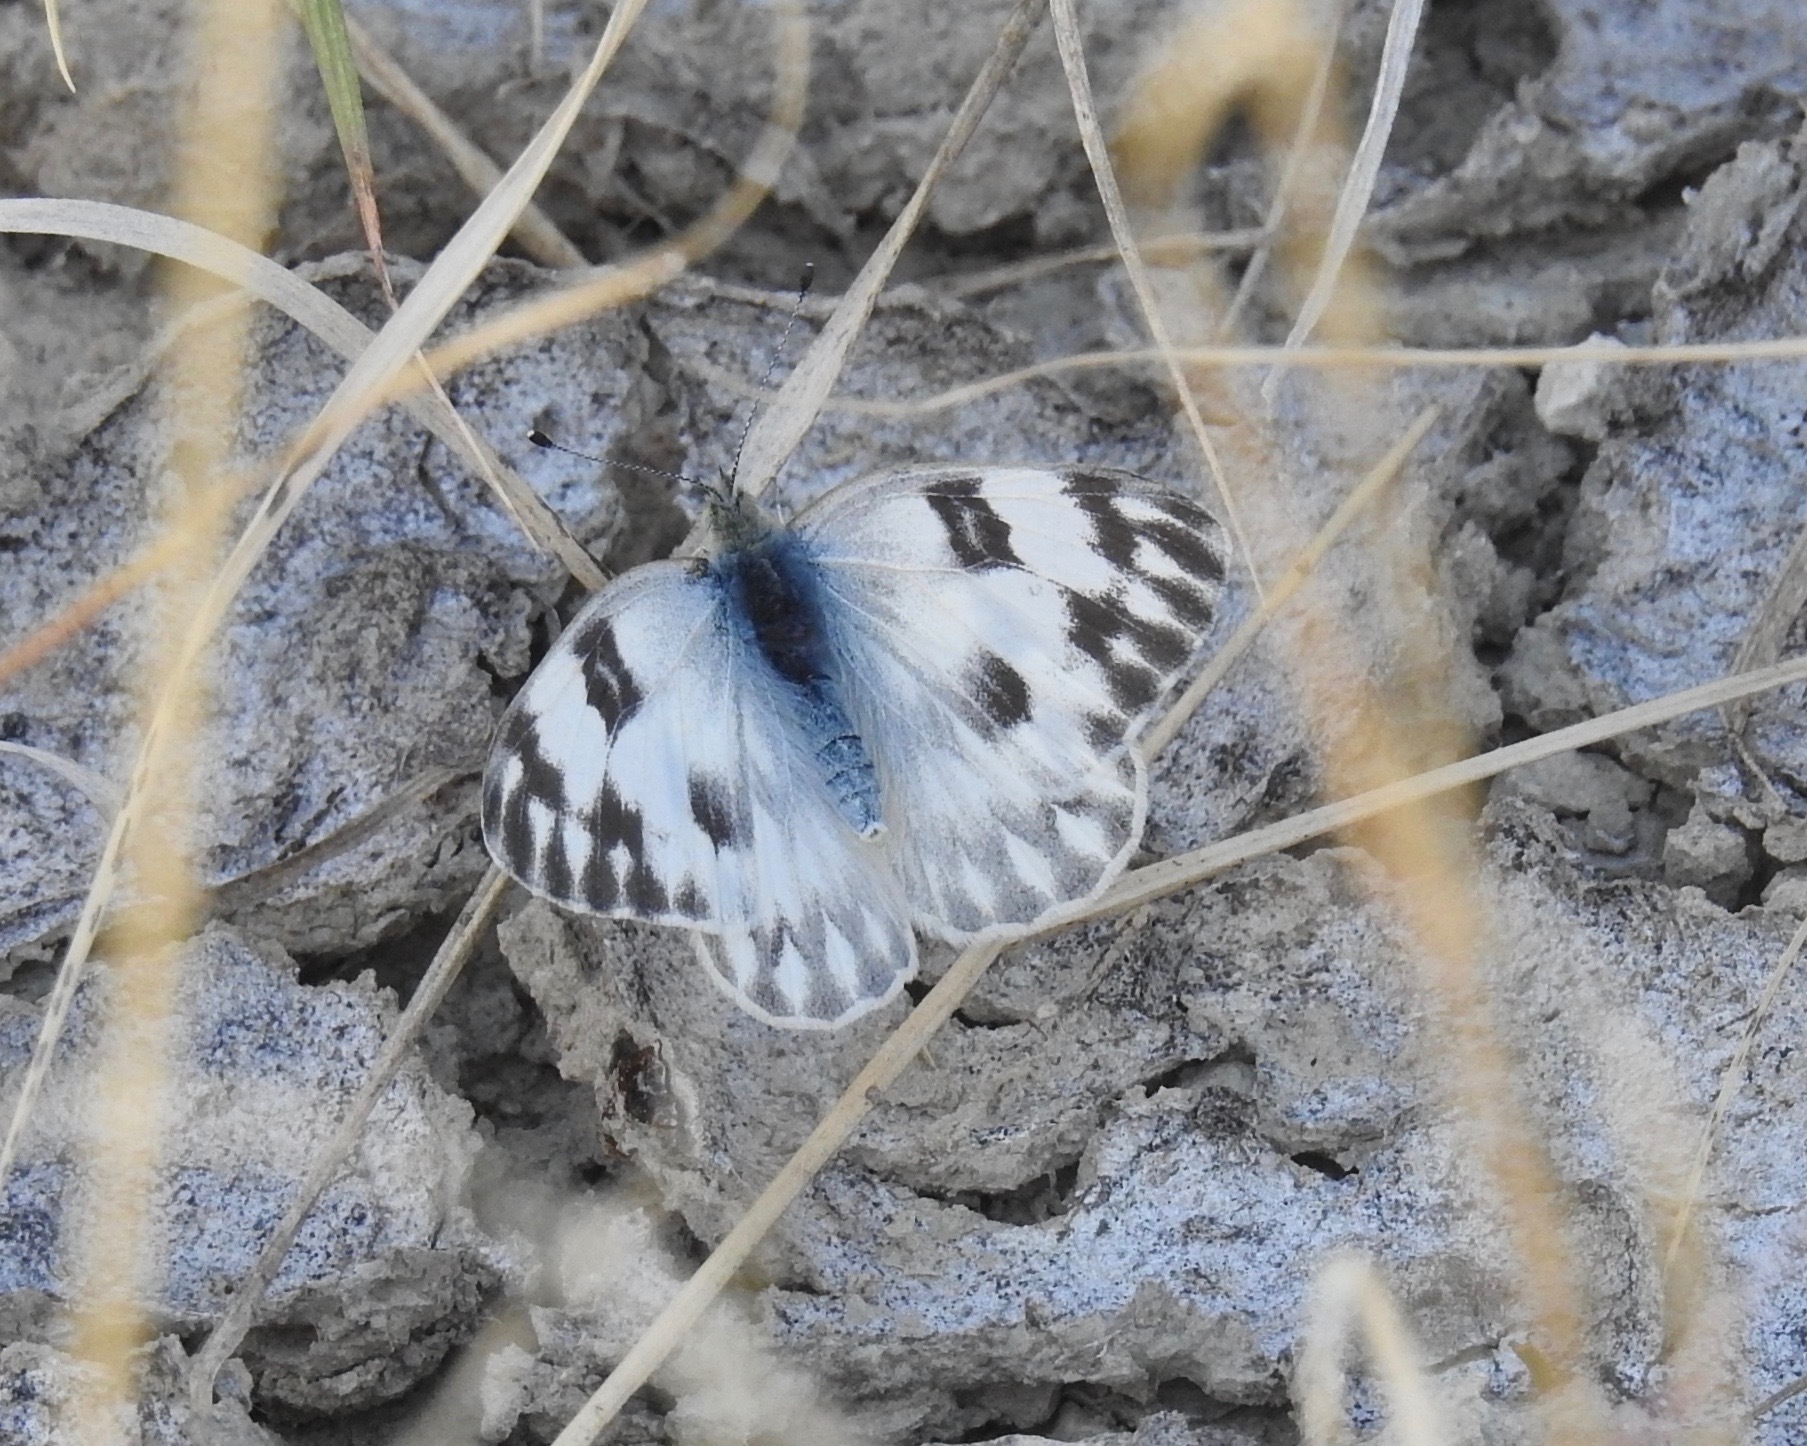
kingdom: Animalia
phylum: Arthropoda
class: Insecta
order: Lepidoptera
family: Pieridae
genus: Pontia
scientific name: Pontia protodice
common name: Checkered white
